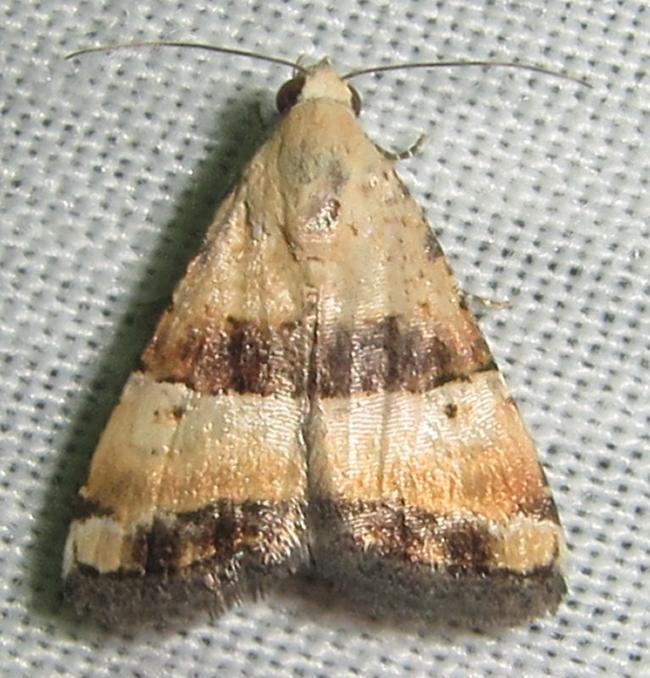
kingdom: Animalia
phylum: Arthropoda
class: Insecta
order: Lepidoptera
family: Noctuidae
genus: Pseudozarba
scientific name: Pseudozarba bipartita
